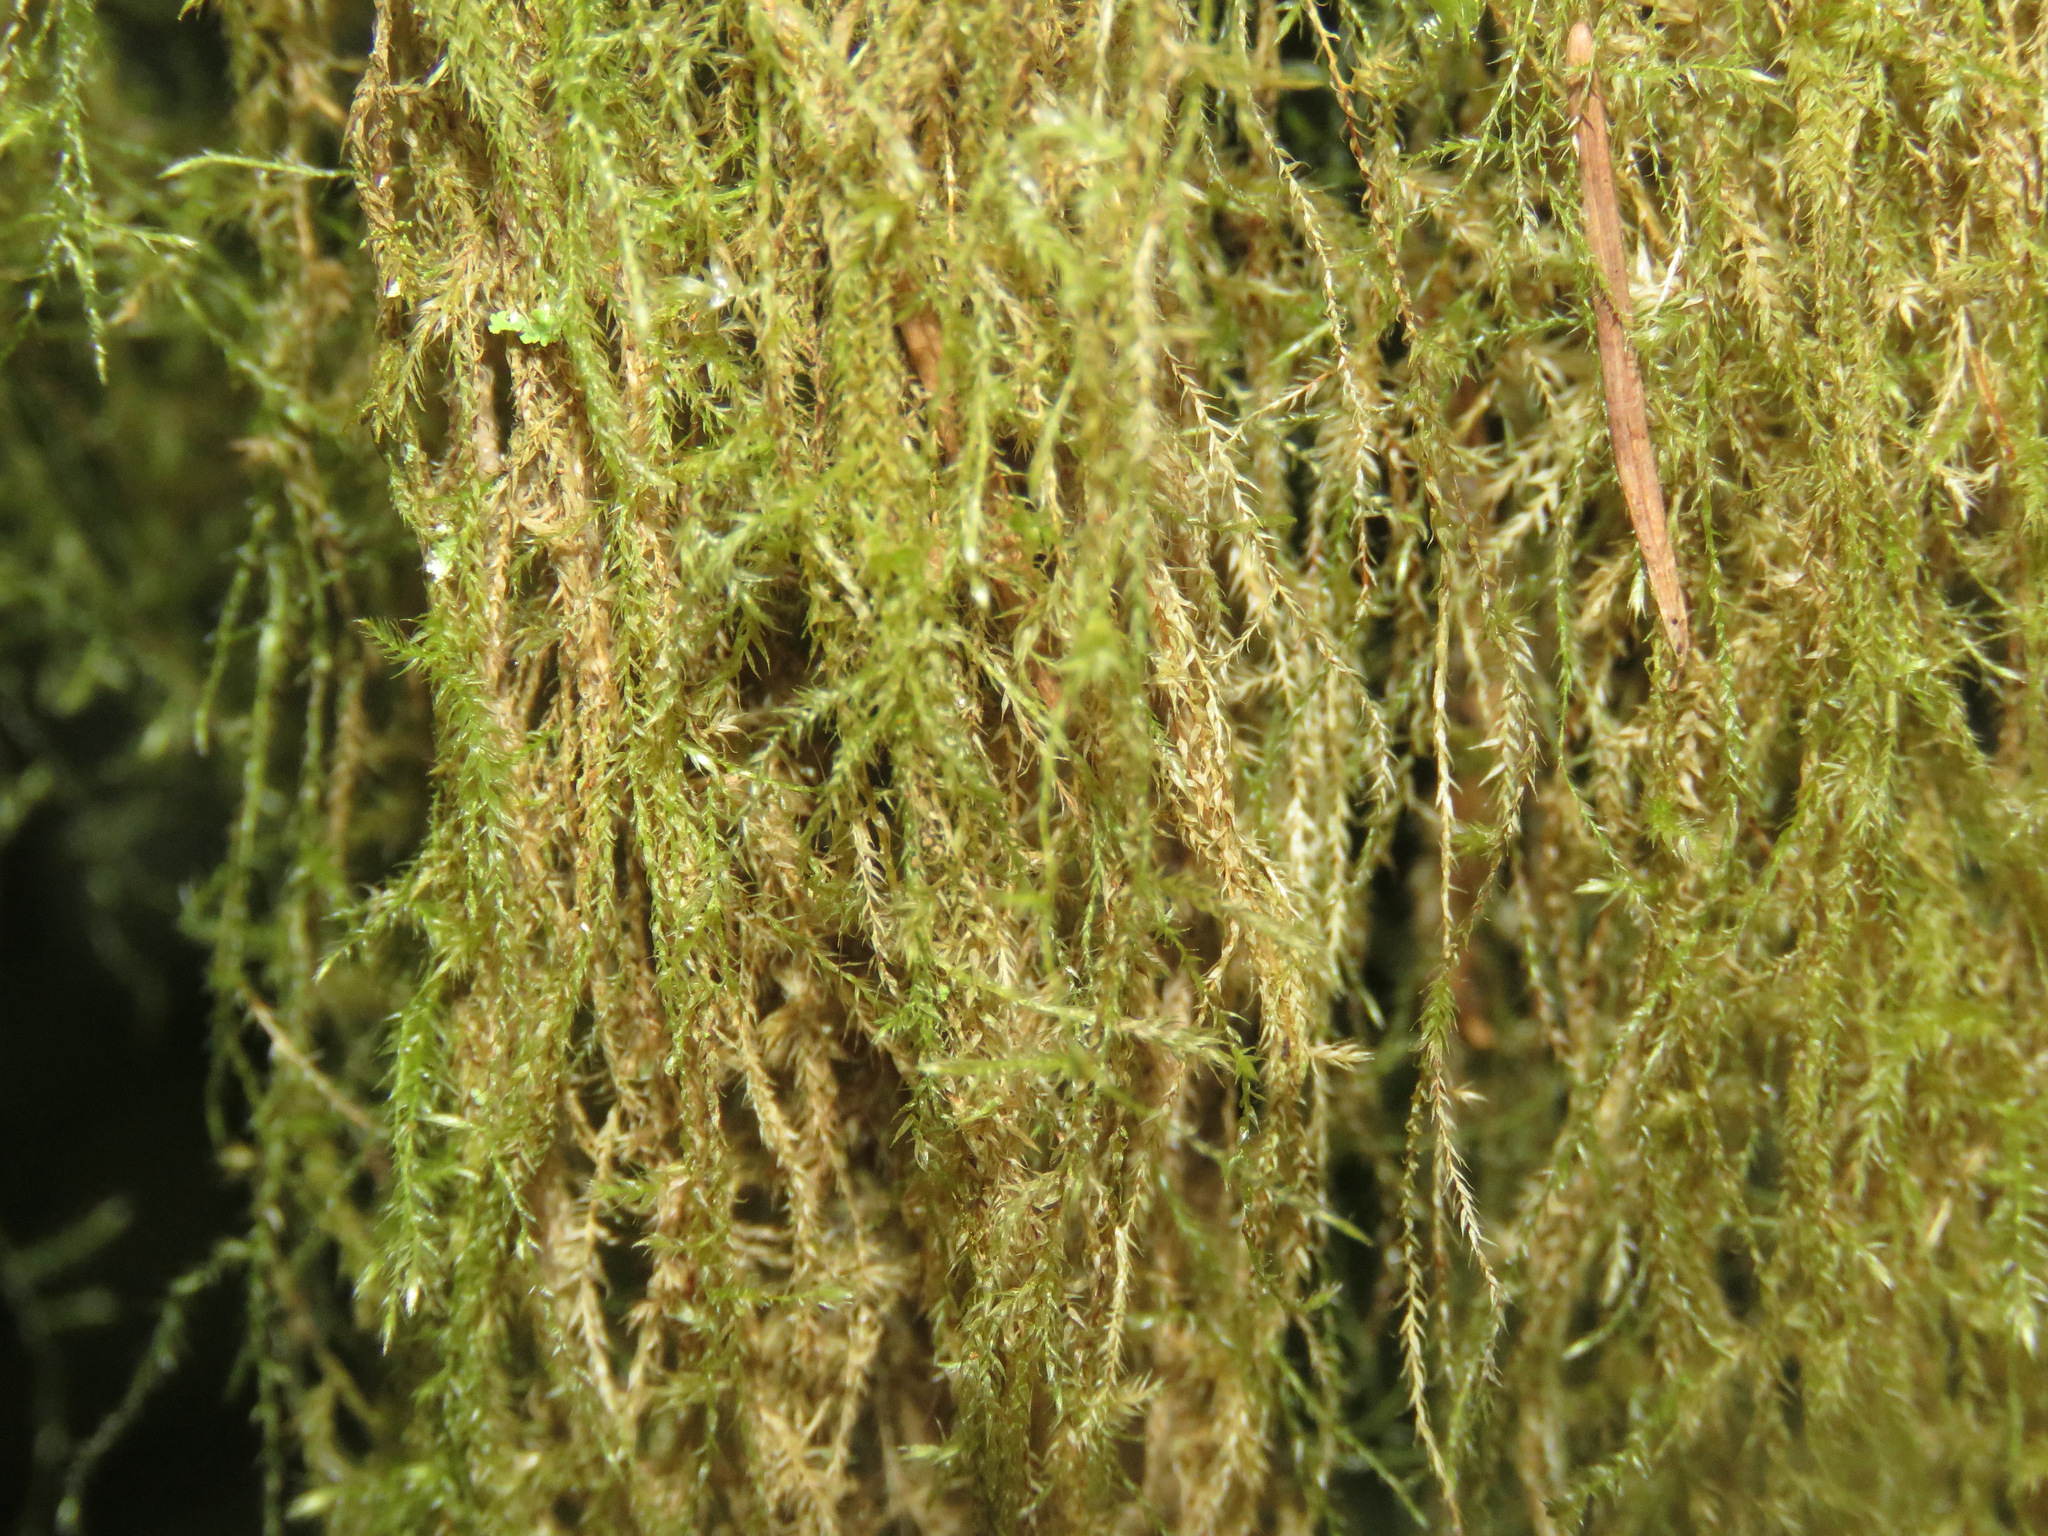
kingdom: Plantae
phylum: Bryophyta
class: Bryopsida
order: Hypnales
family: Lembophyllaceae
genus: Pseudisothecium
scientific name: Pseudisothecium stoloniferum
